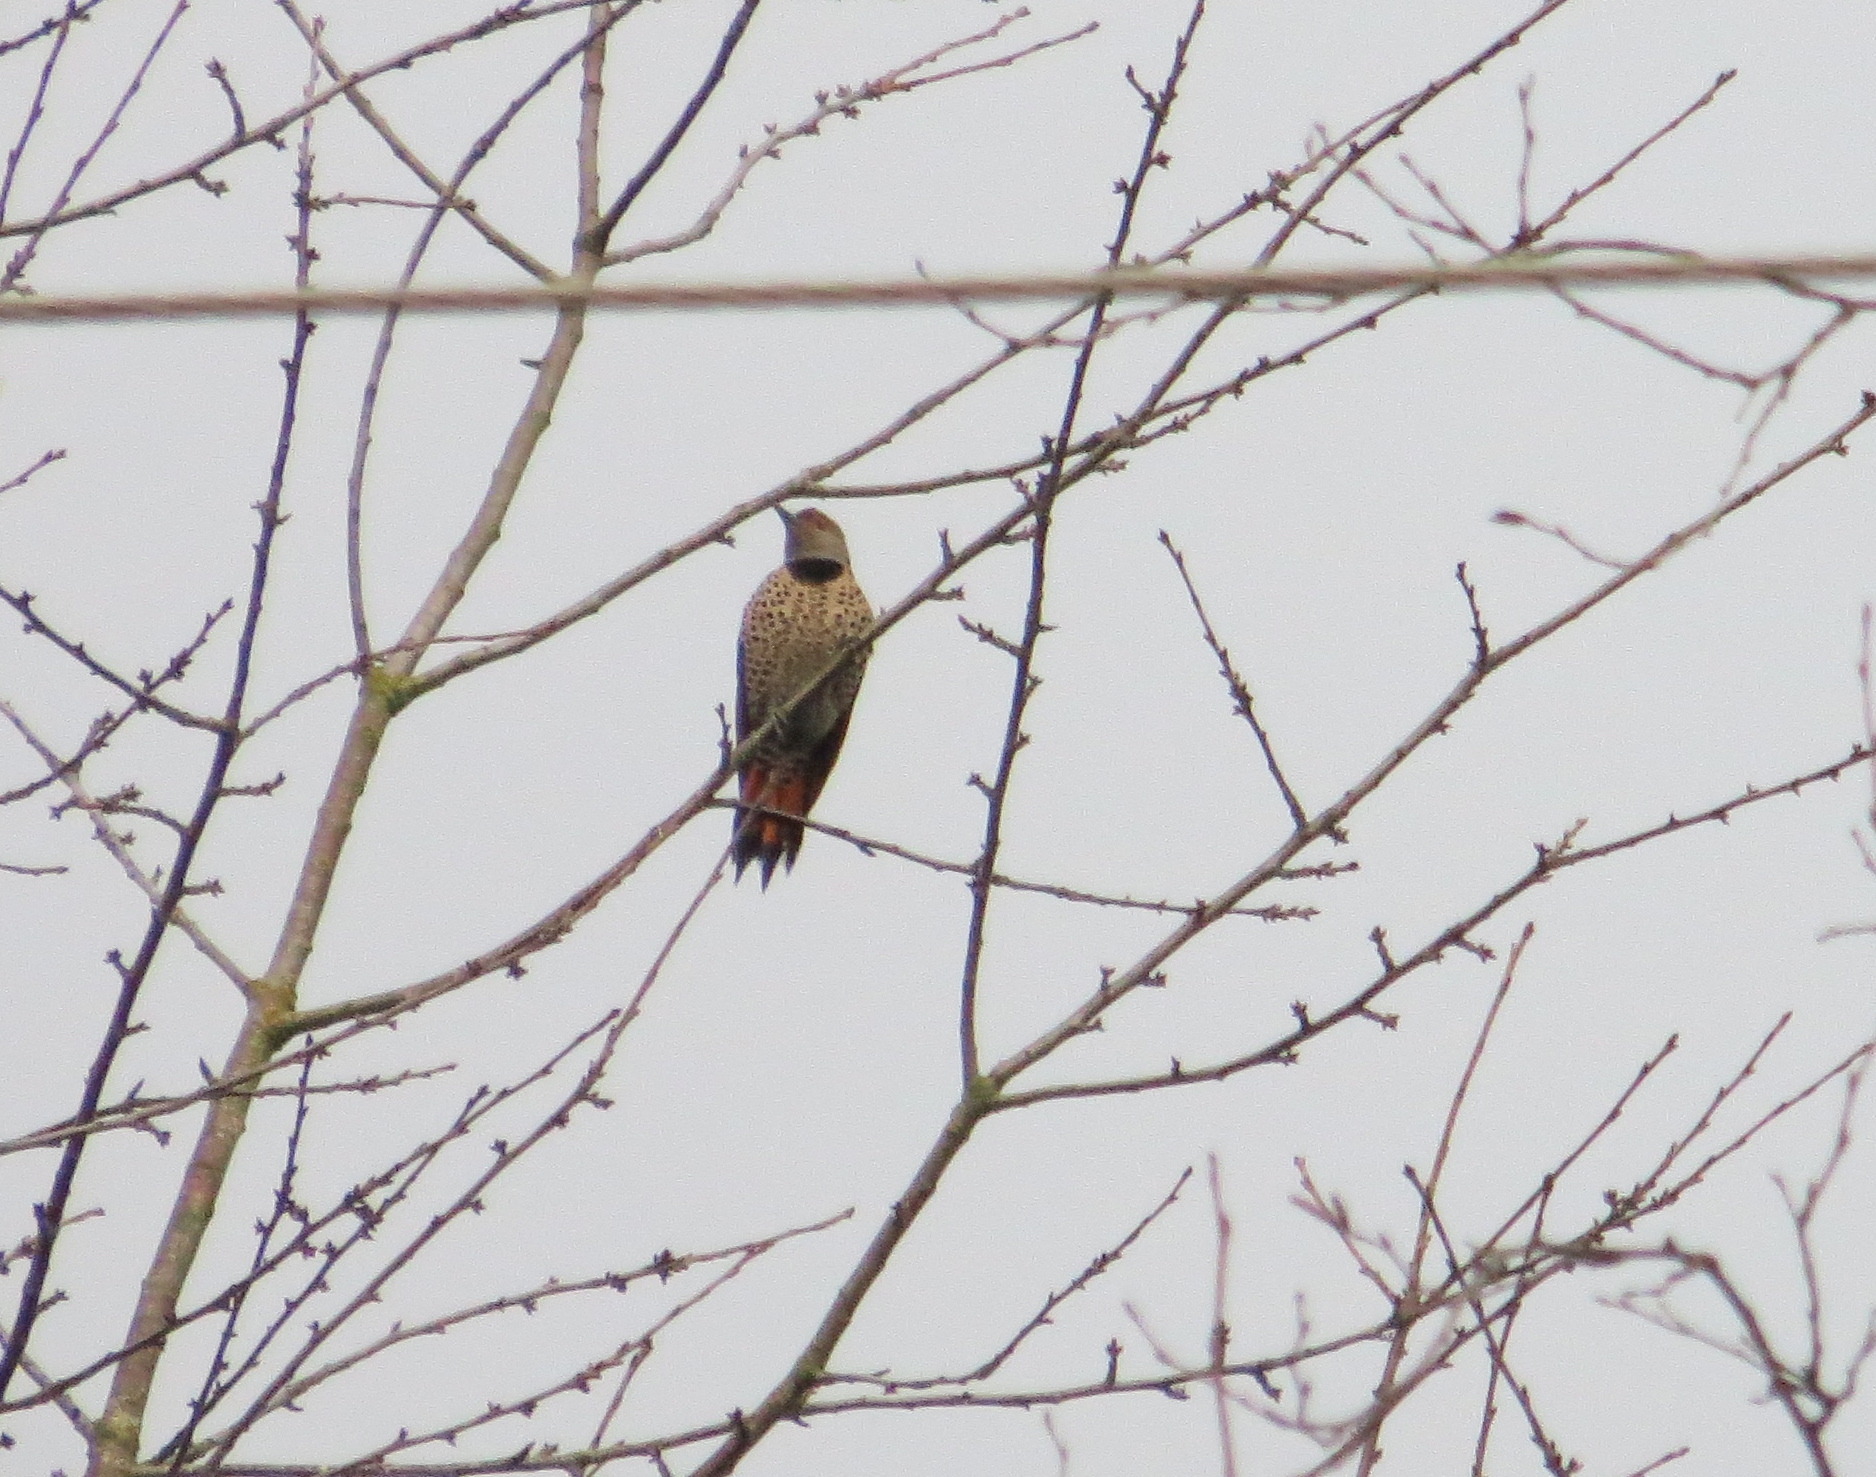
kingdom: Animalia
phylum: Chordata
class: Aves
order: Piciformes
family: Picidae
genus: Colaptes
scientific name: Colaptes auratus
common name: Northern flicker
